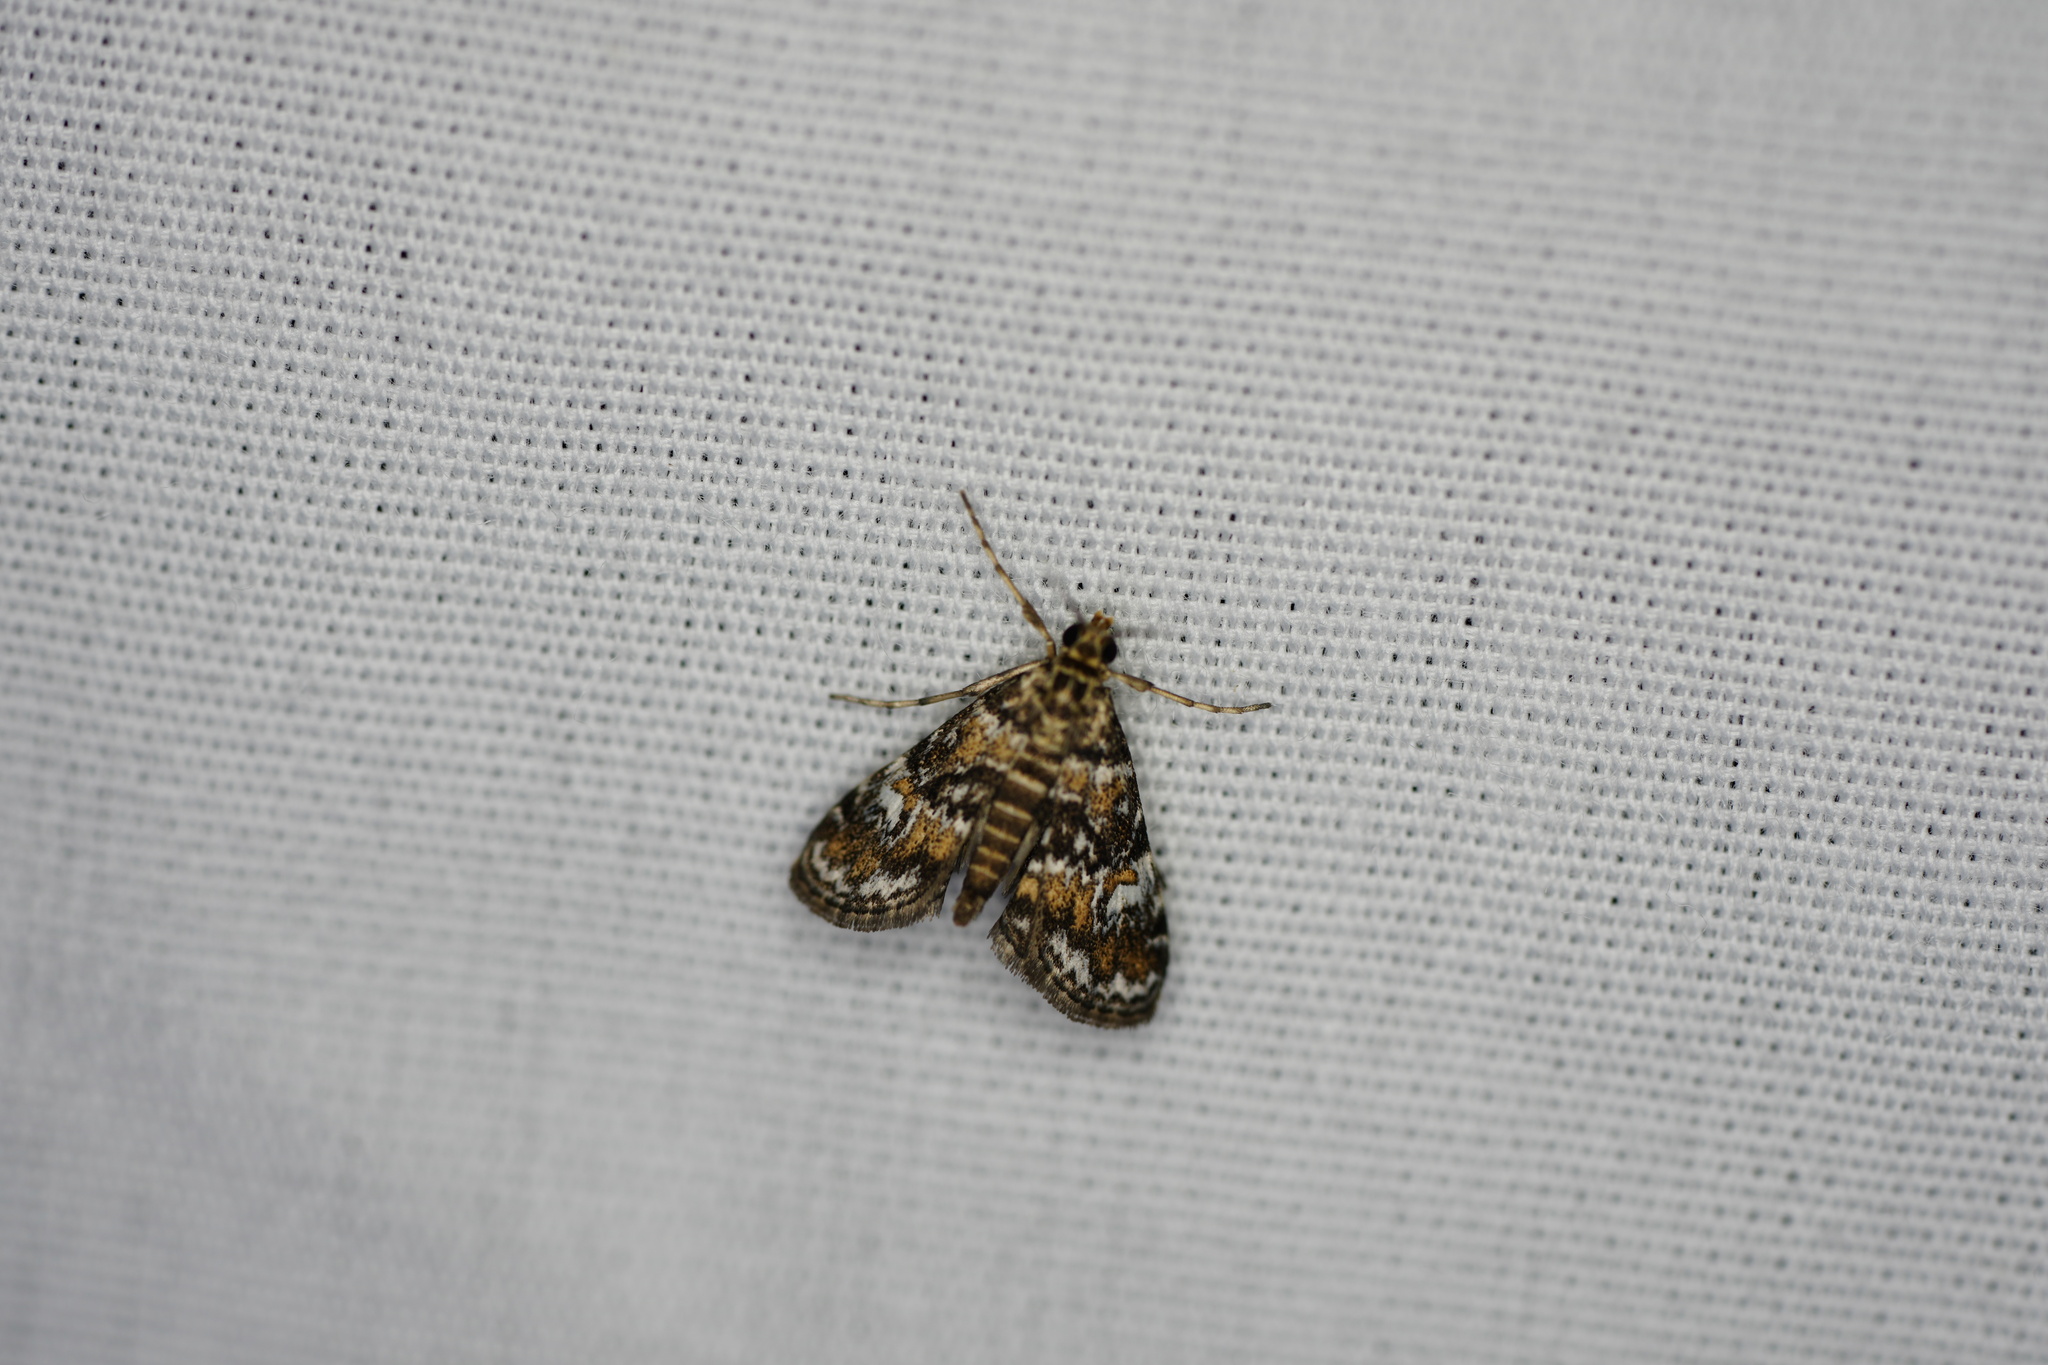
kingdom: Animalia
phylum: Arthropoda
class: Insecta
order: Lepidoptera
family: Crambidae
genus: Elophila
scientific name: Elophila obliteralis
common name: Waterlily leafcutter moth
